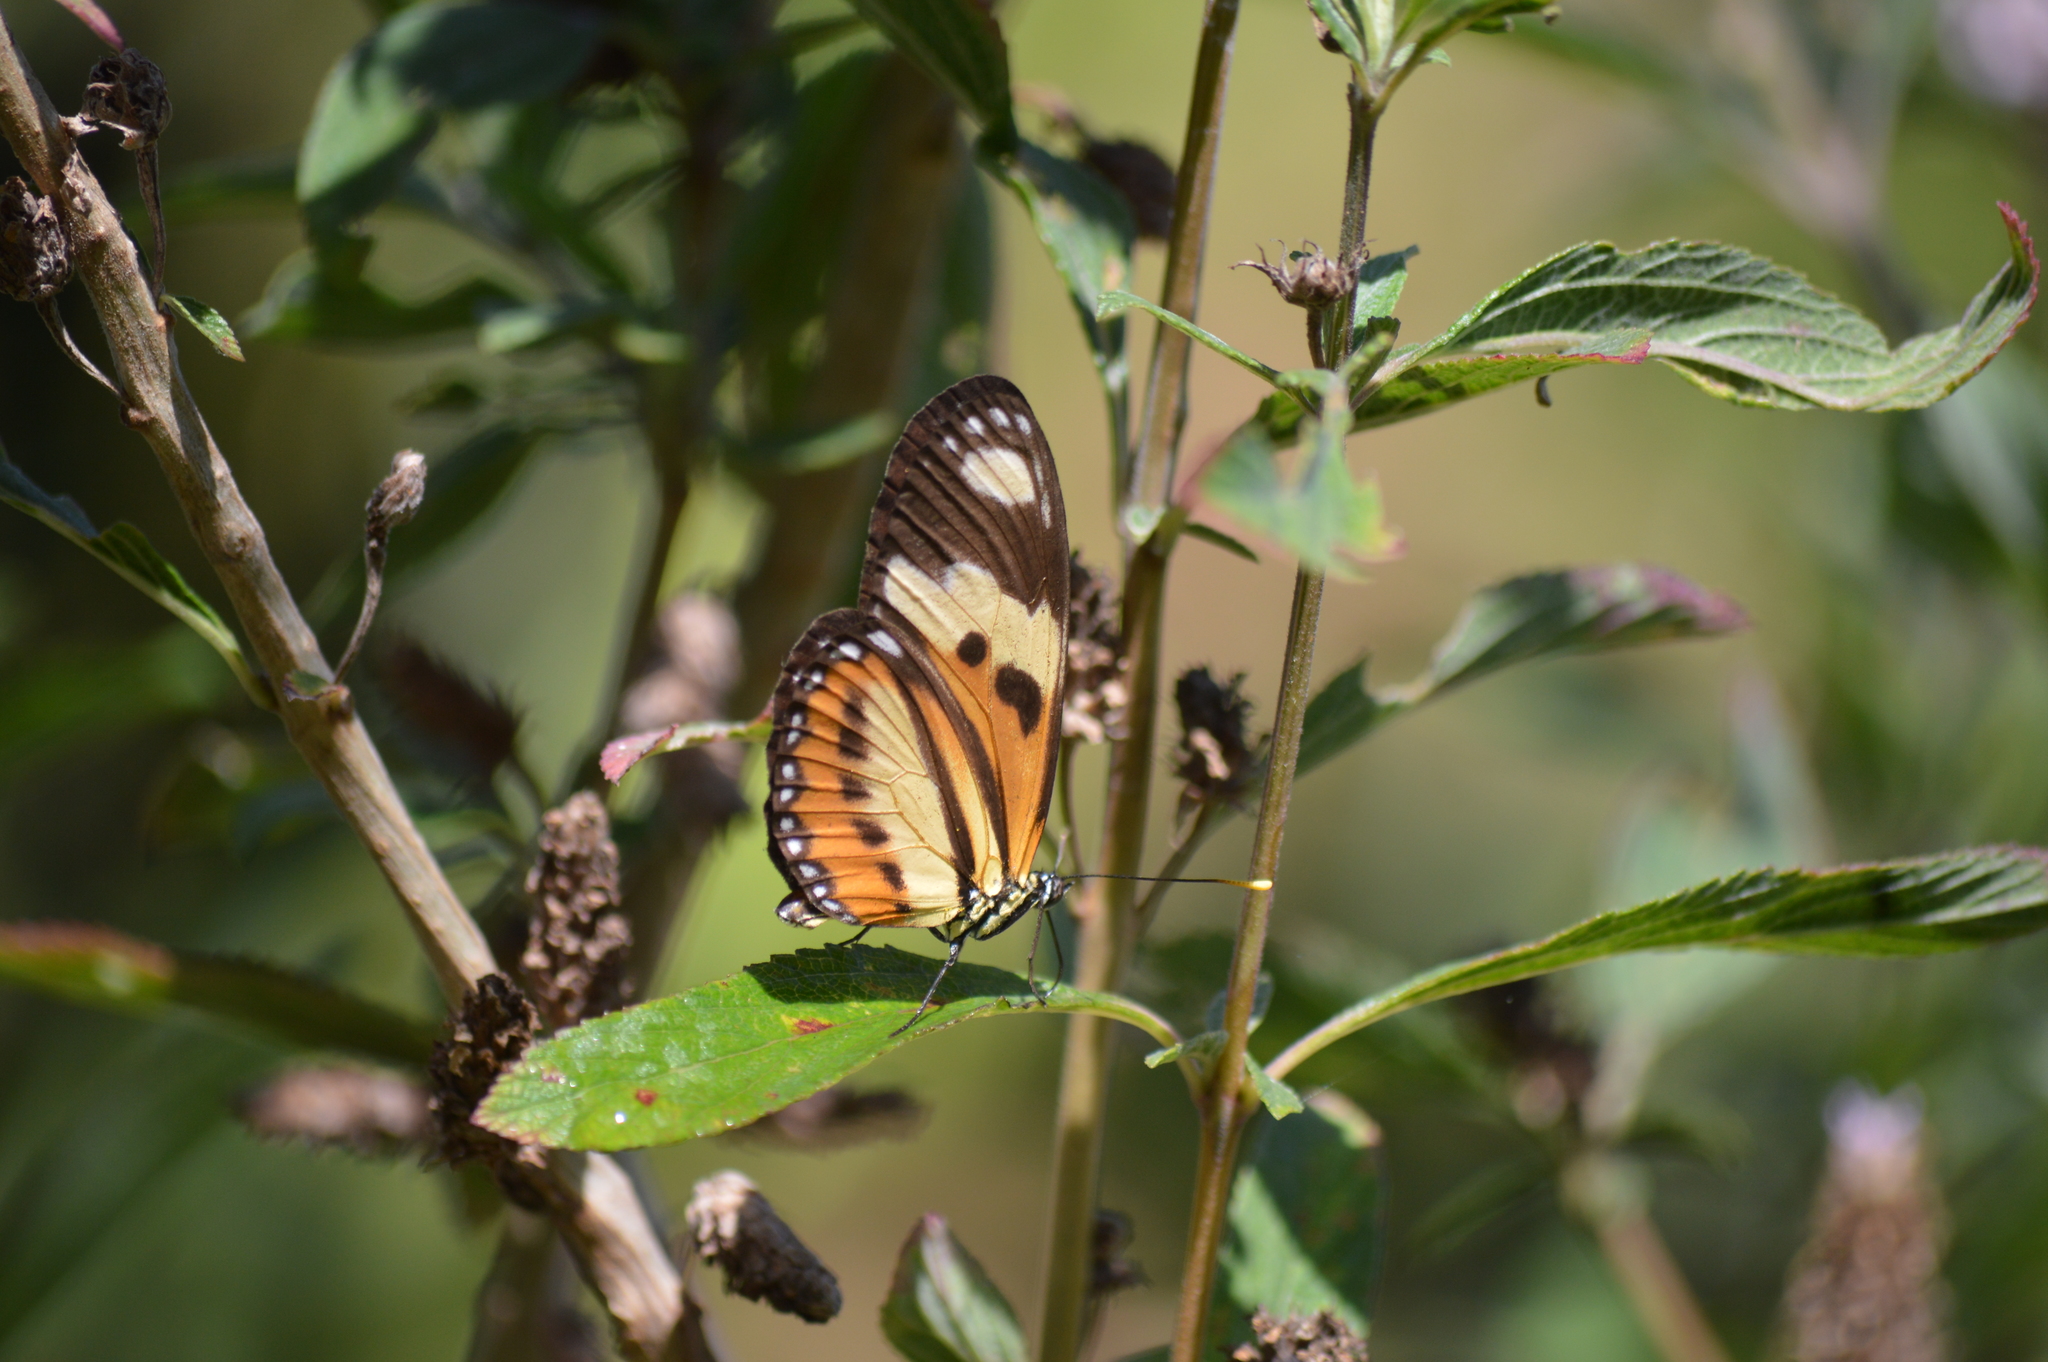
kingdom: Animalia
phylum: Arthropoda
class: Insecta
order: Lepidoptera
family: Nymphalidae
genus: Eueides
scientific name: Eueides isabella
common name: Isabella's longwing
